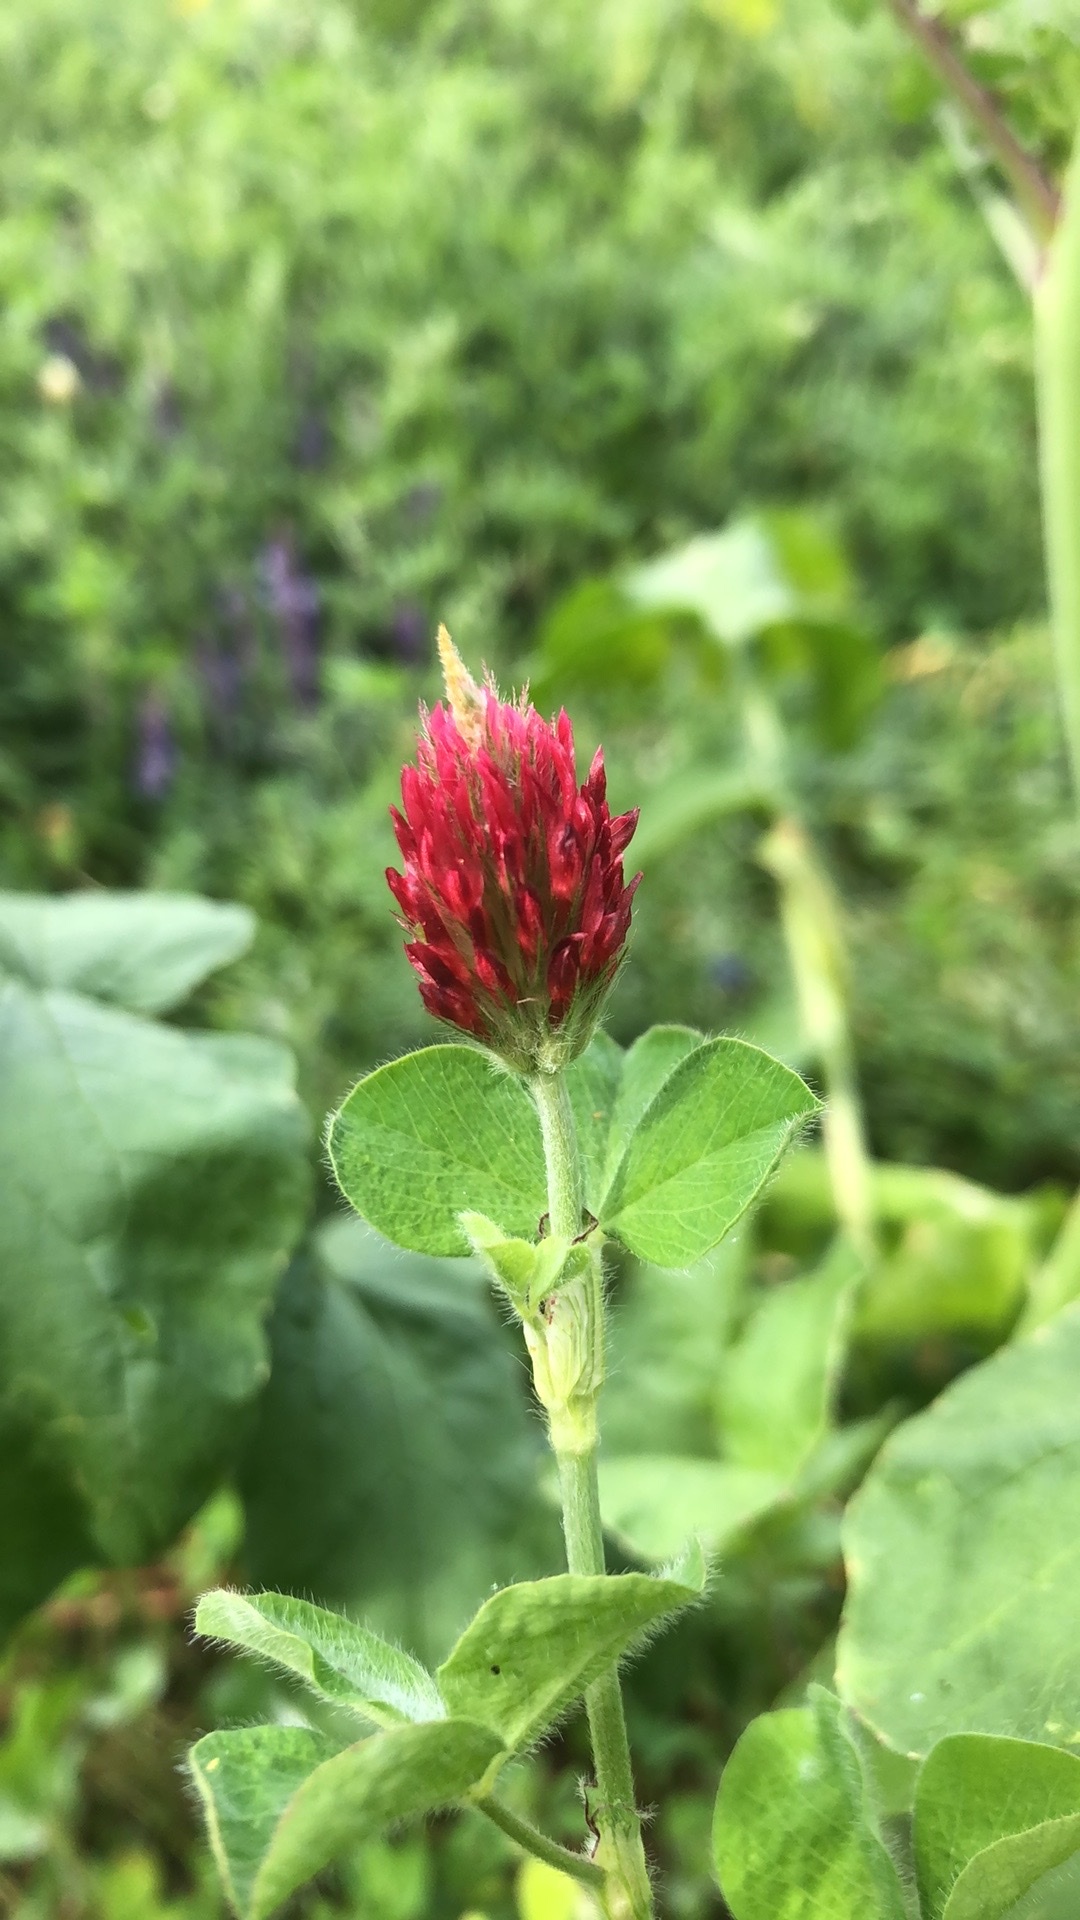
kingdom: Plantae
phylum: Tracheophyta
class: Magnoliopsida
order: Fabales
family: Fabaceae
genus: Trifolium
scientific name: Trifolium incarnatum
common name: Crimson clover
